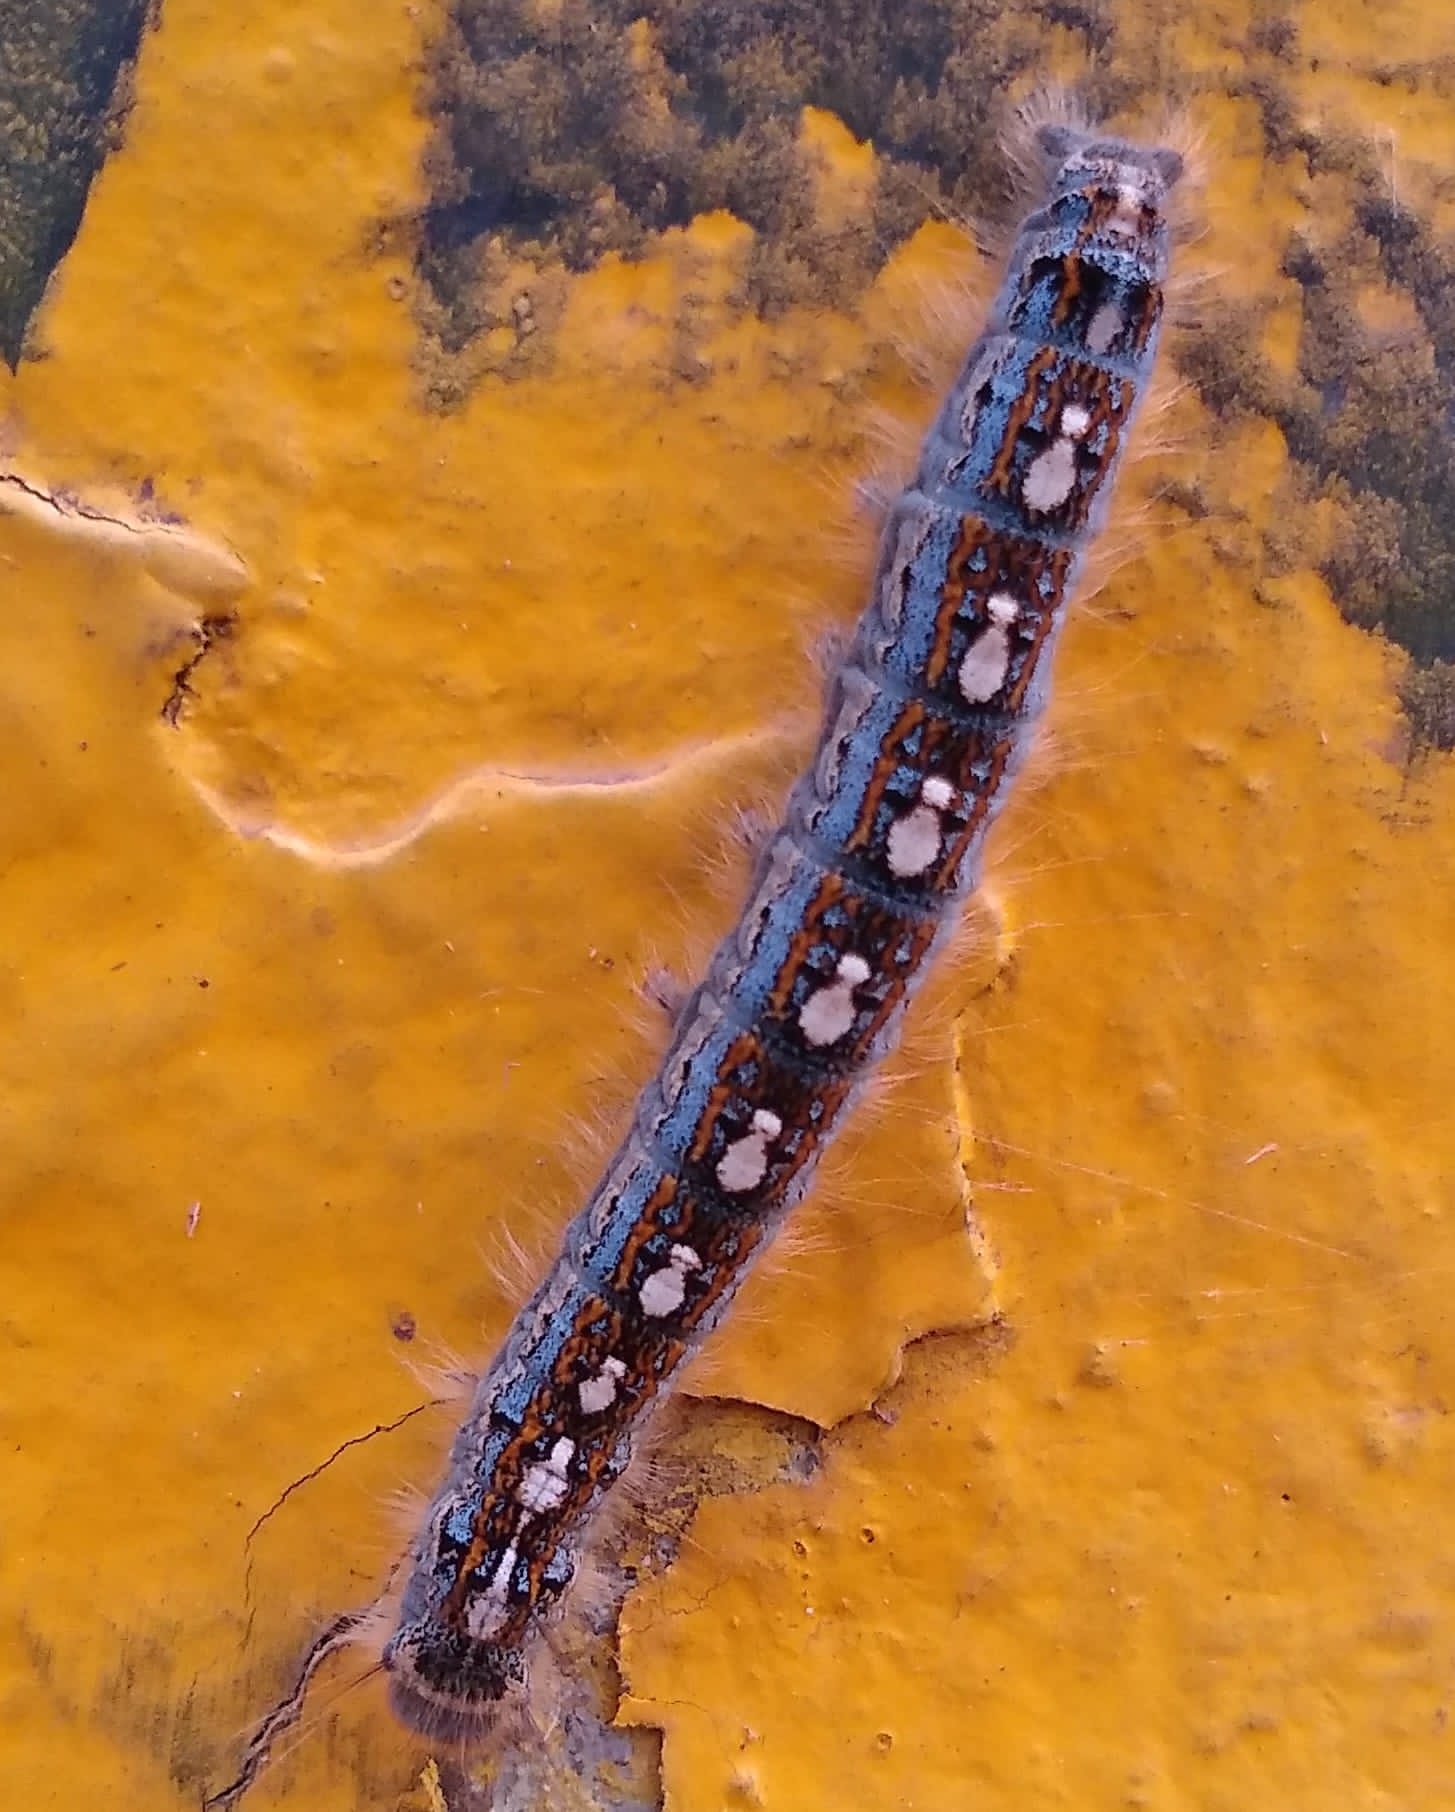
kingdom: Animalia
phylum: Arthropoda
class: Insecta
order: Lepidoptera
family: Lasiocampidae
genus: Malacosoma
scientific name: Malacosoma disstria
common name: Forest tent caterpillar
